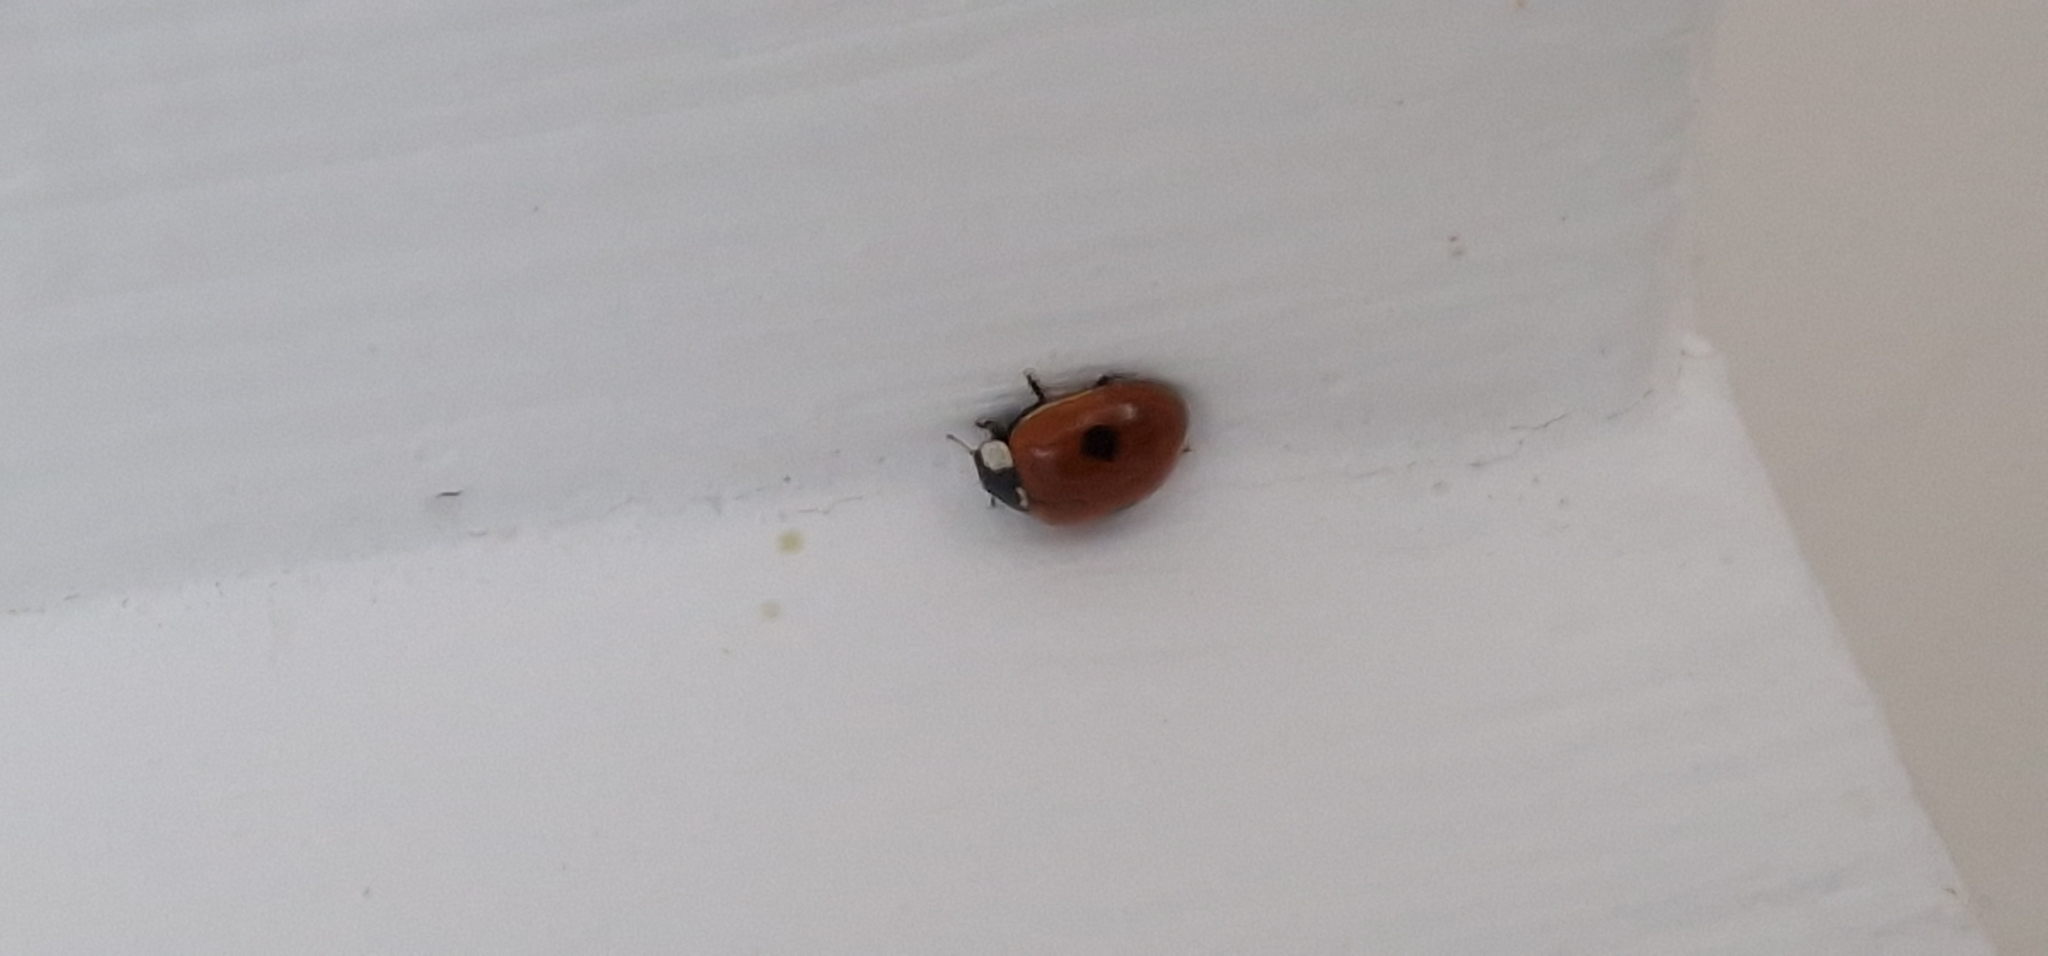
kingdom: Animalia
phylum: Arthropoda
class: Insecta
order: Coleoptera
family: Coccinellidae
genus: Adalia
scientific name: Adalia bipunctata
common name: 2-spot ladybird
